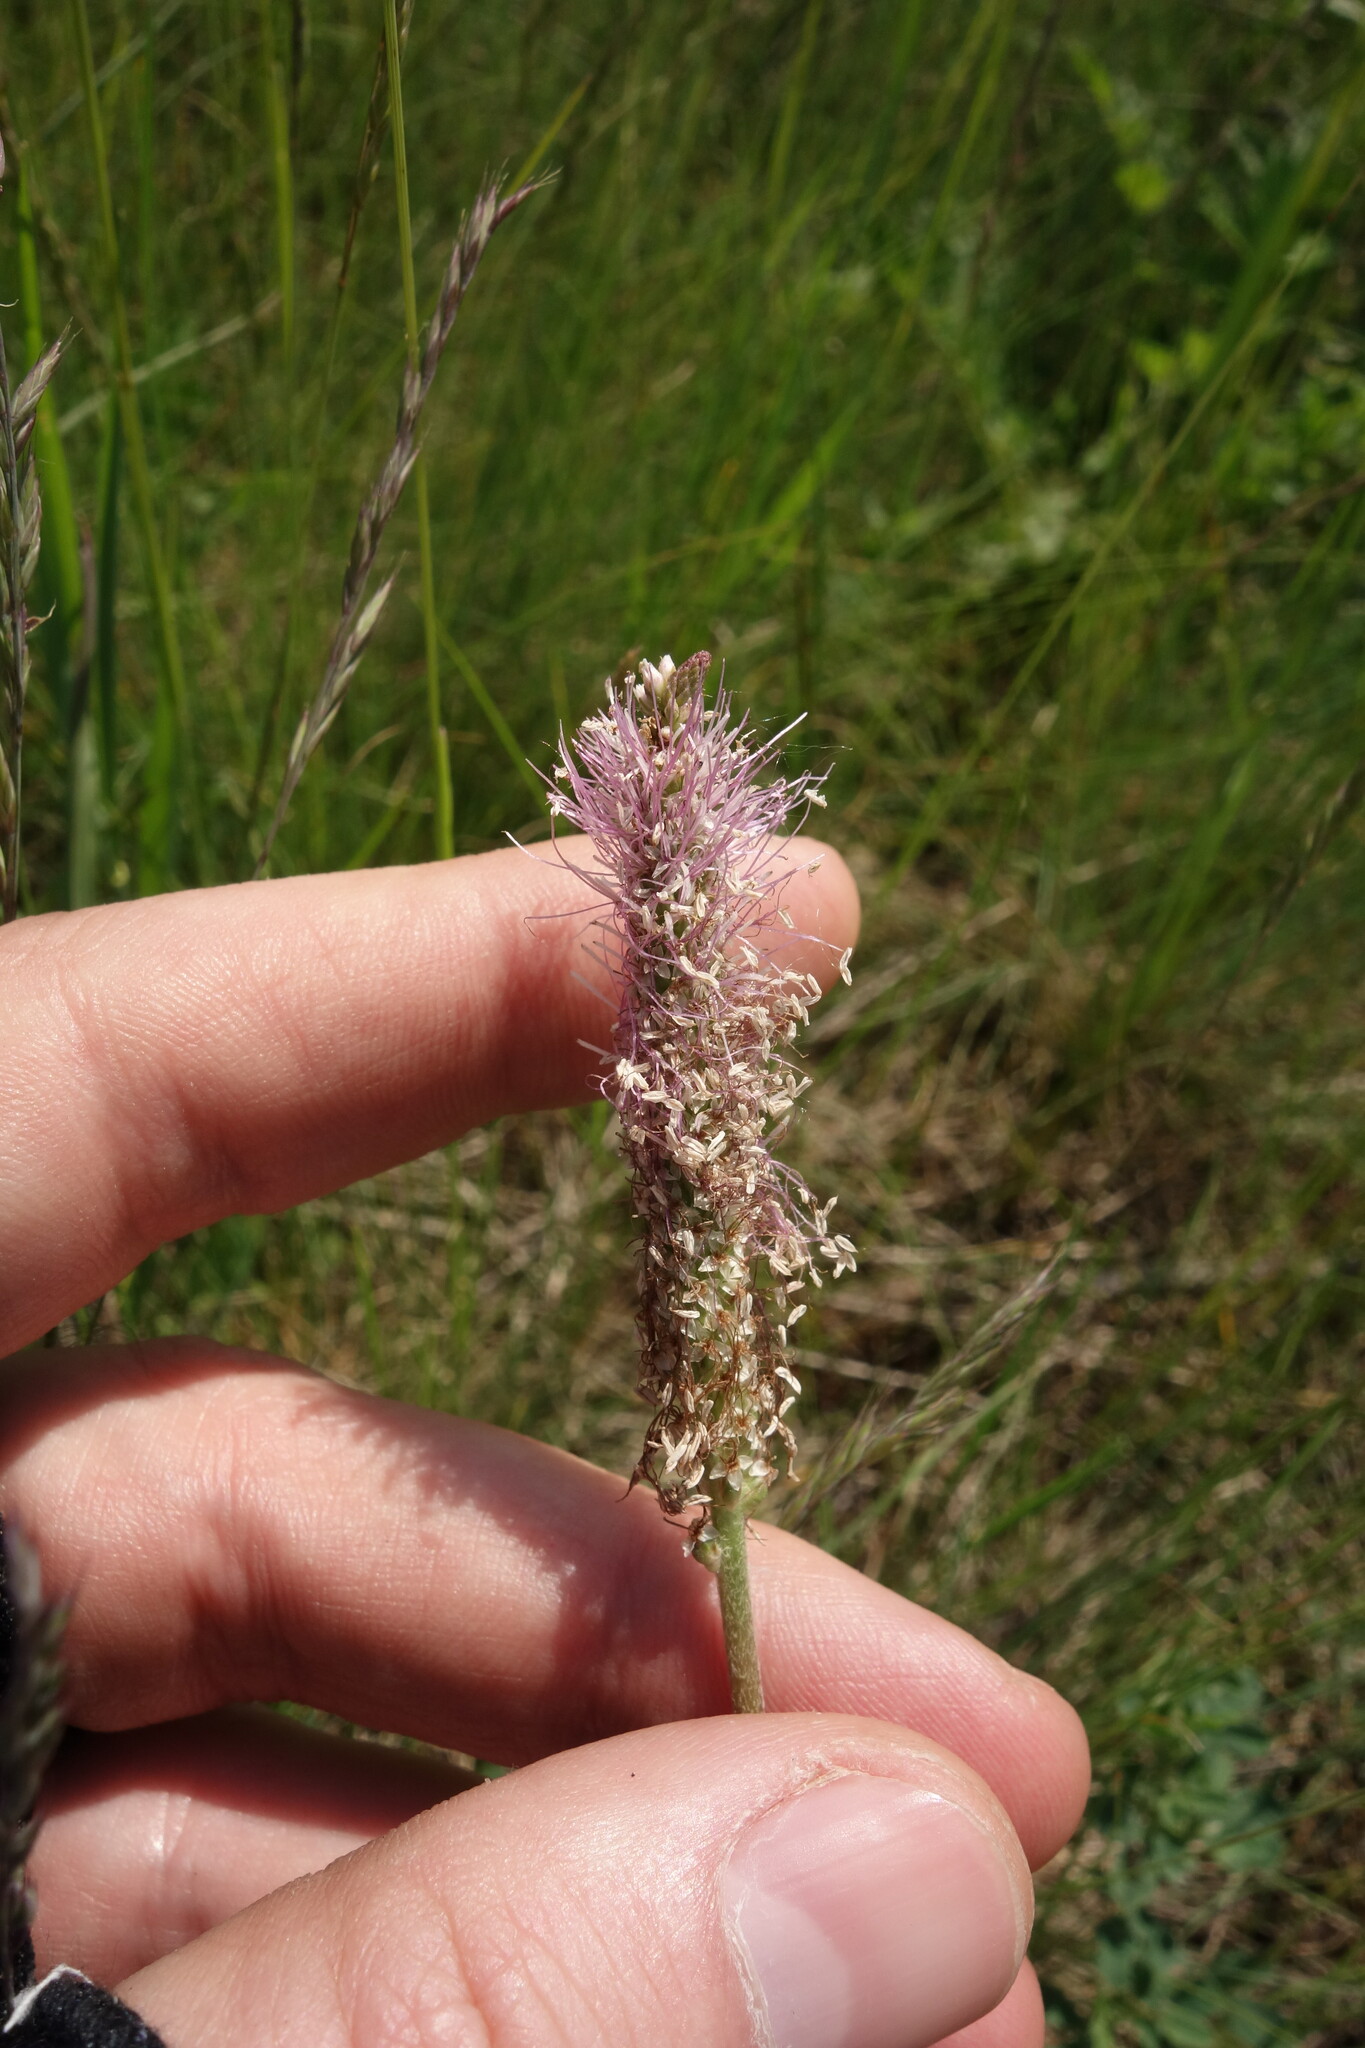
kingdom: Plantae
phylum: Tracheophyta
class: Magnoliopsida
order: Lamiales
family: Plantaginaceae
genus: Plantago
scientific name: Plantago media
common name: Hoary plantain
